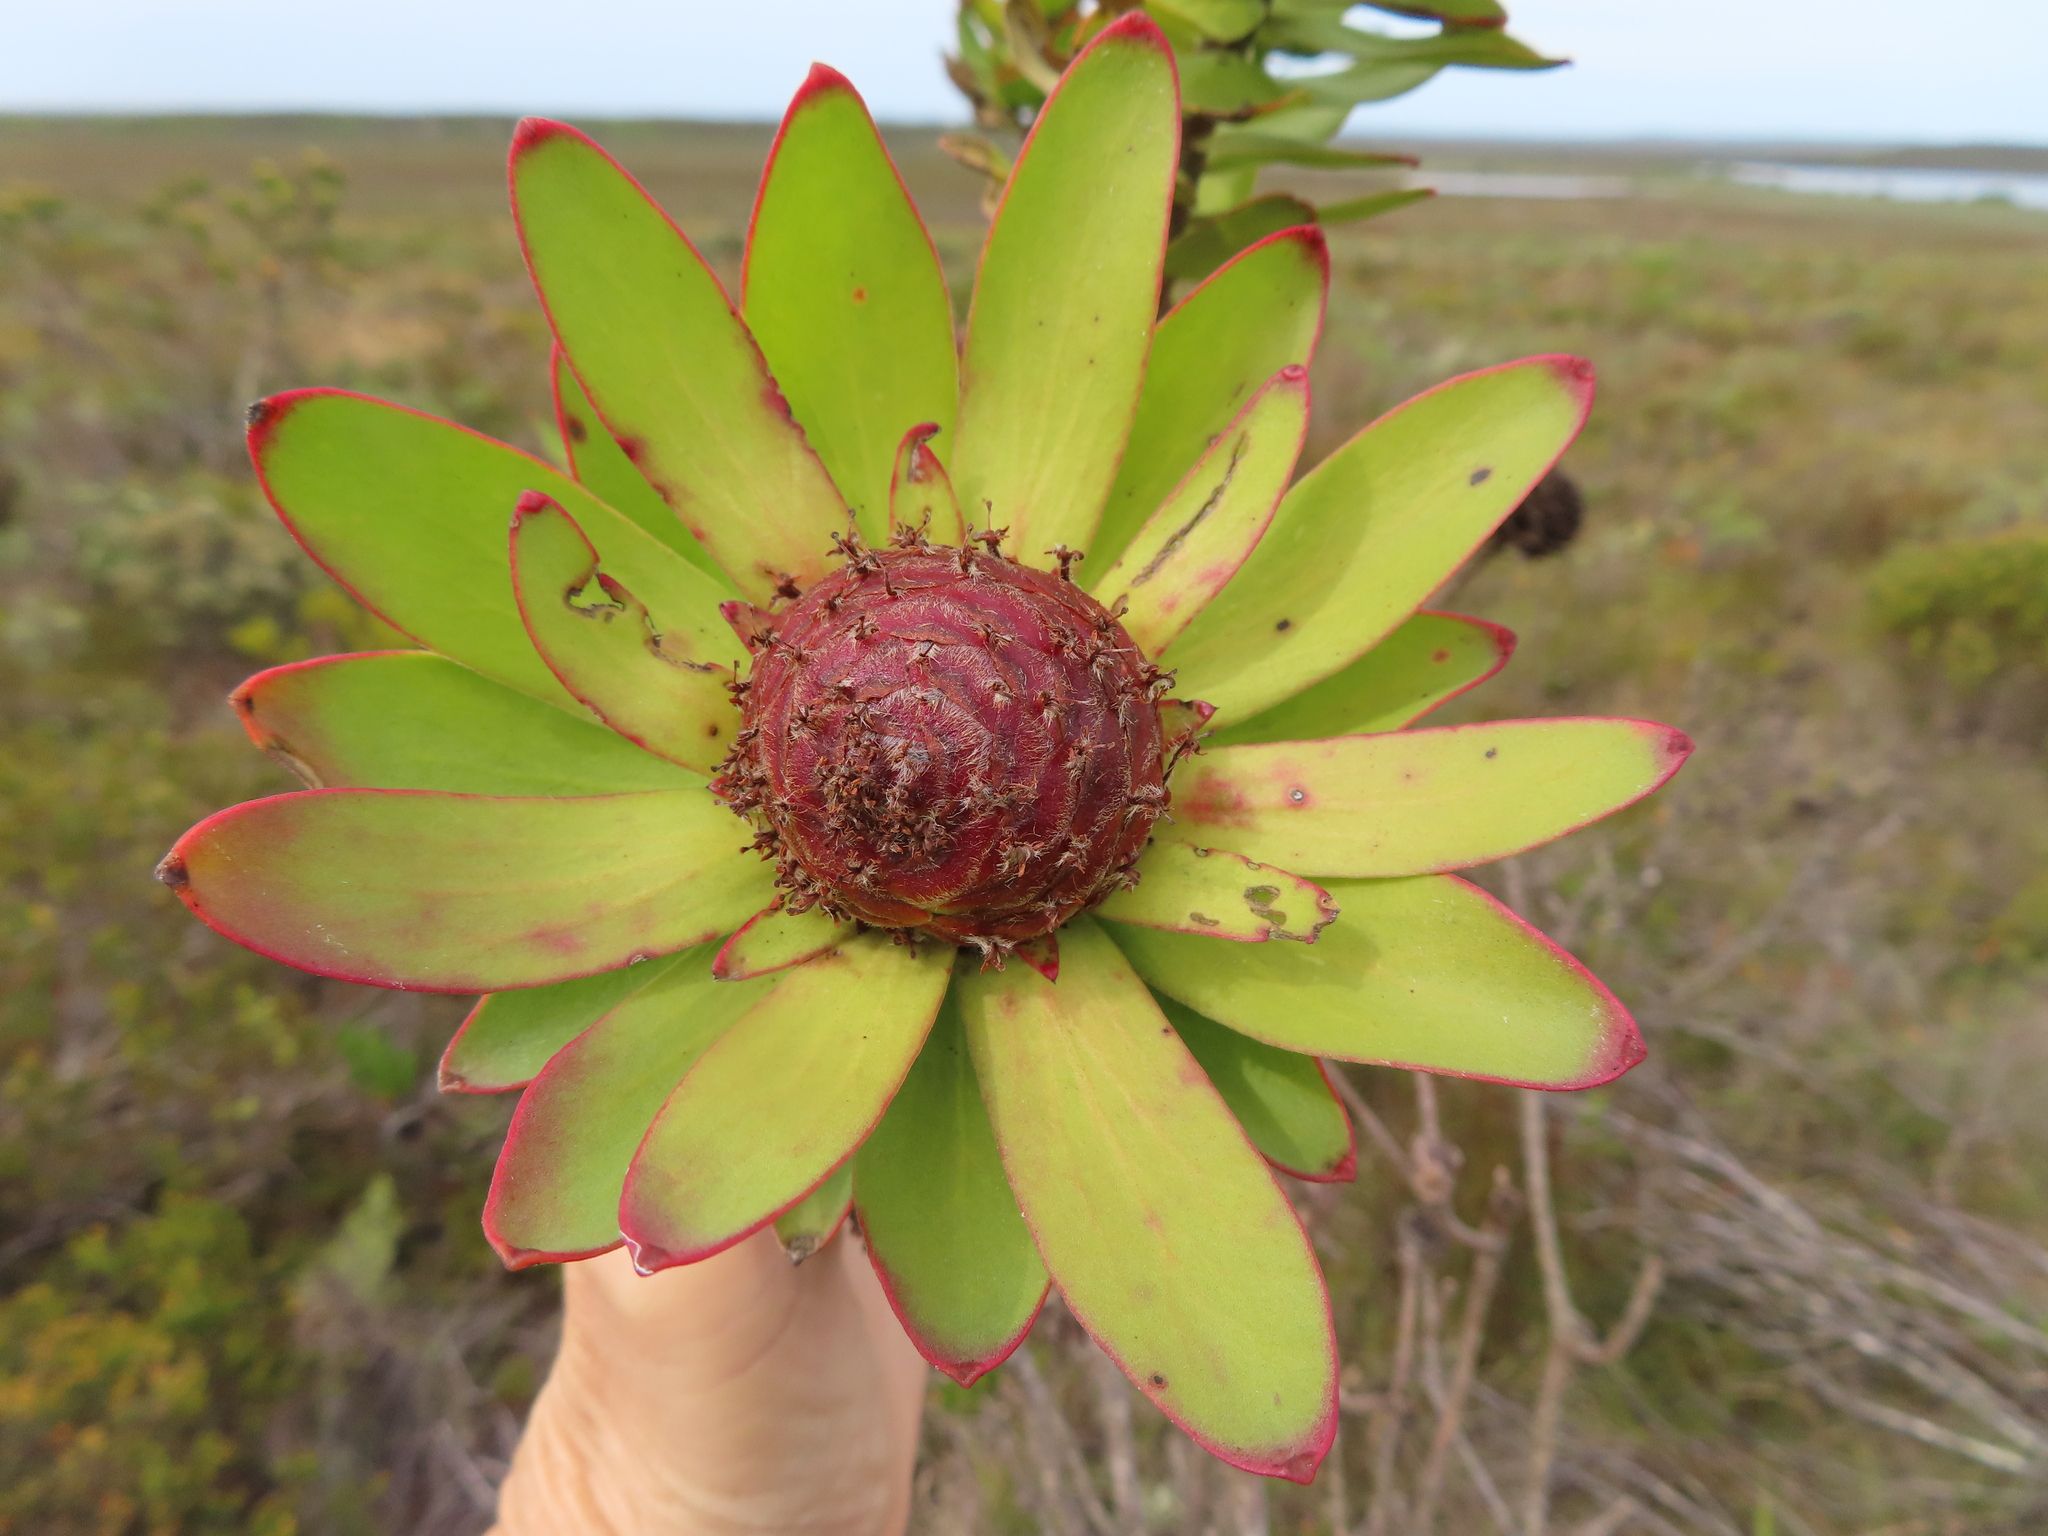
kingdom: Plantae
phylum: Tracheophyta
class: Magnoliopsida
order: Proteales
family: Proteaceae
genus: Leucadendron
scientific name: Leucadendron elimense
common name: Elim conebush
